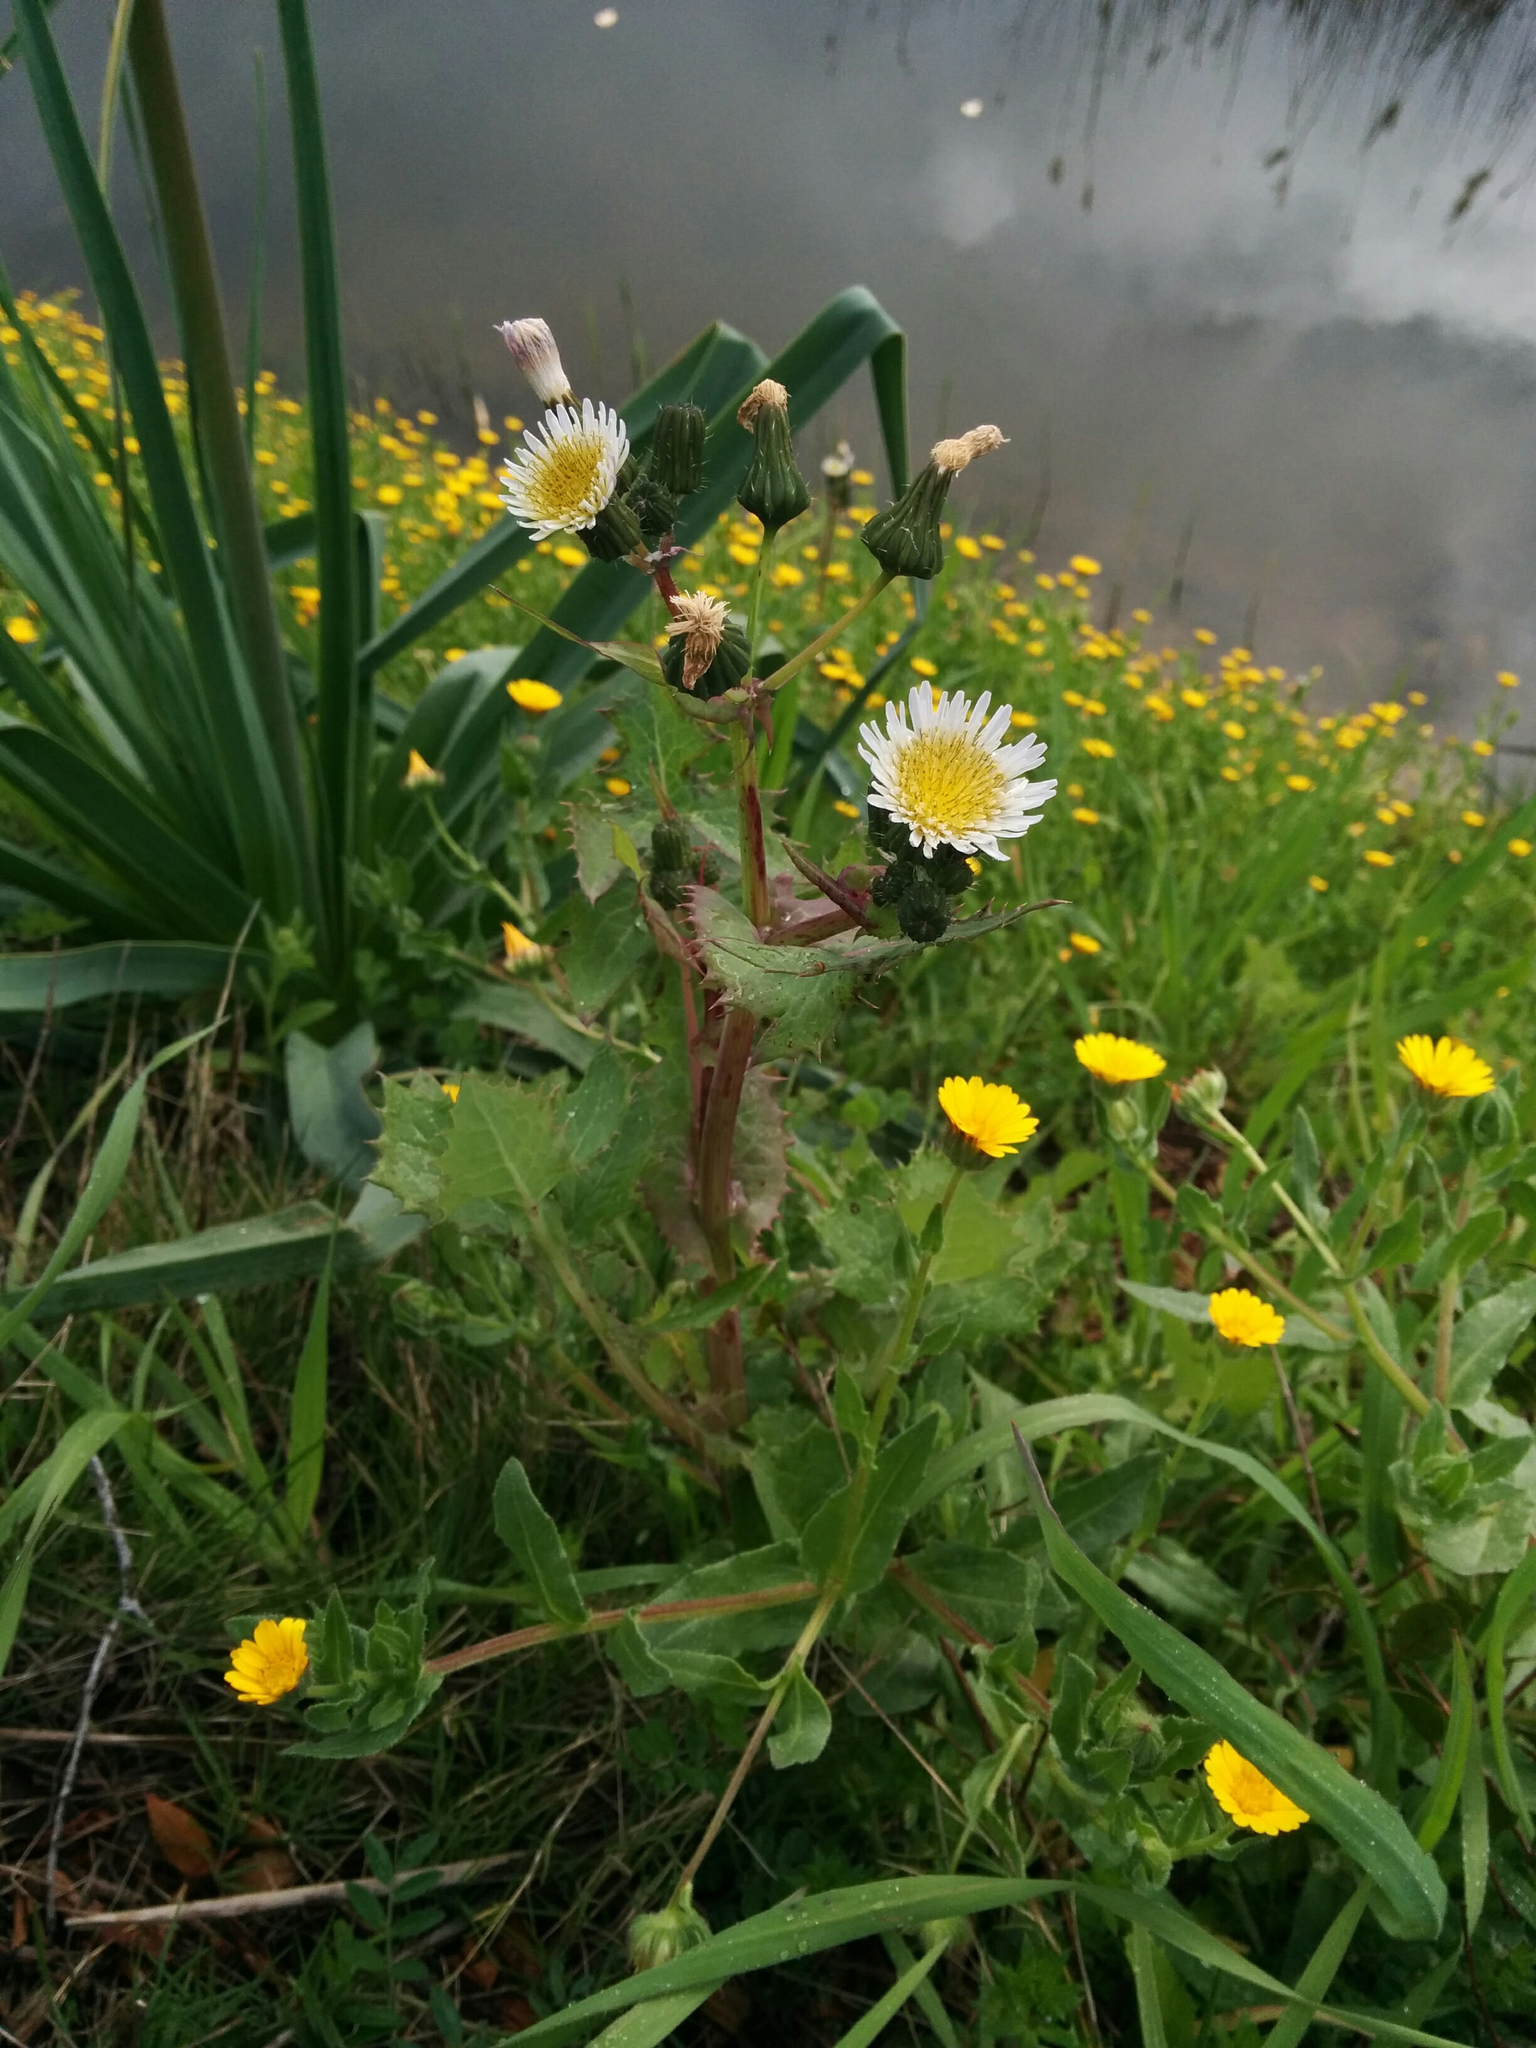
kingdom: Plantae
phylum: Tracheophyta
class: Magnoliopsida
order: Asterales
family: Asteraceae
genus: Sonchus
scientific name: Sonchus asper
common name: Prickly sow-thistle
